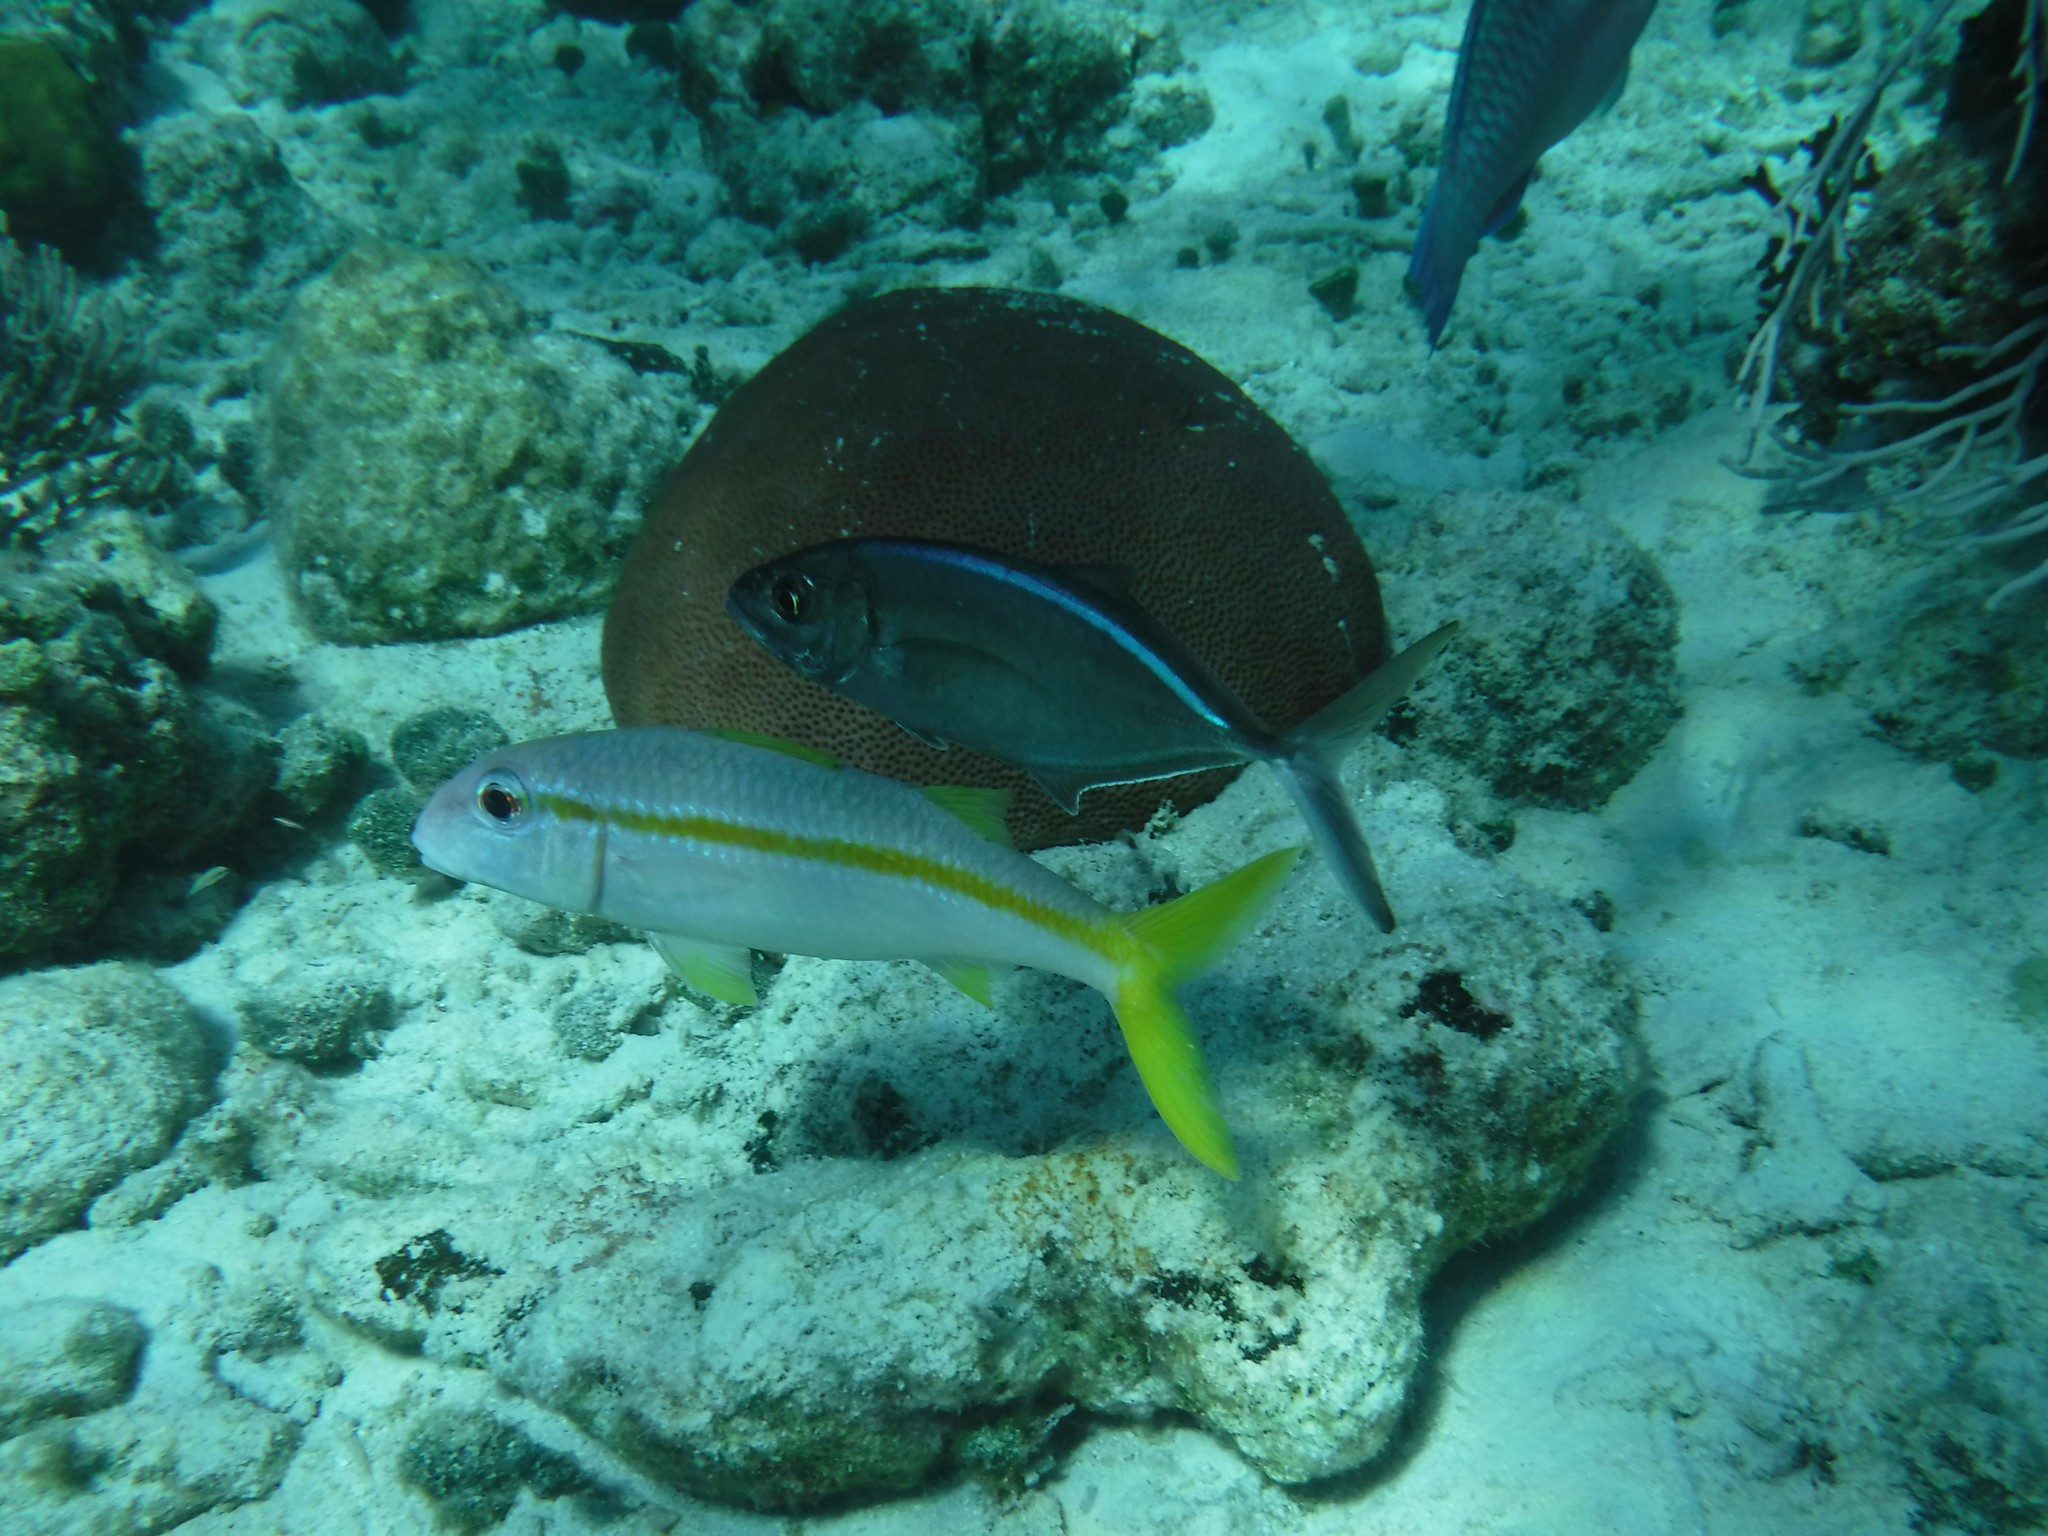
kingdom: Animalia
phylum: Chordata
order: Perciformes
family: Carangidae
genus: Caranx
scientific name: Caranx ruber
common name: Bar jack
